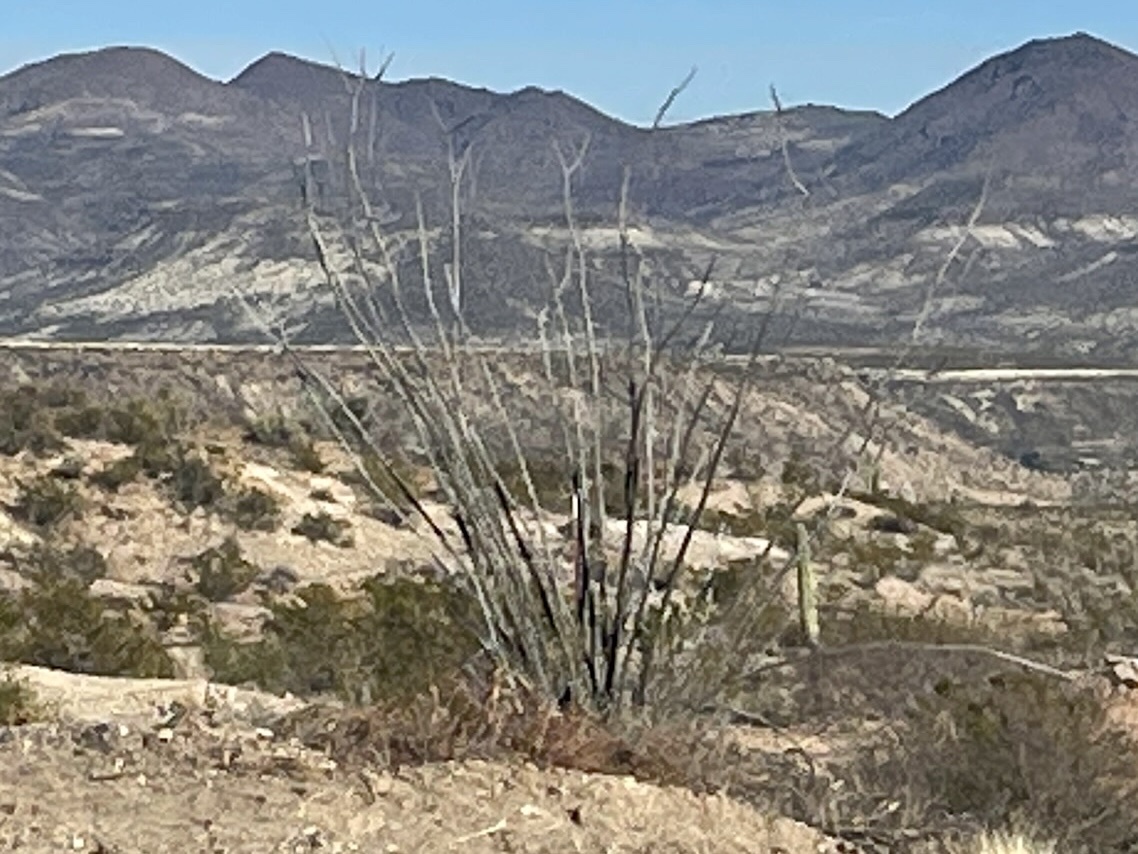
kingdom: Plantae
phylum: Tracheophyta
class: Magnoliopsida
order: Ericales
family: Fouquieriaceae
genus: Fouquieria
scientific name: Fouquieria splendens
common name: Vine-cactus
